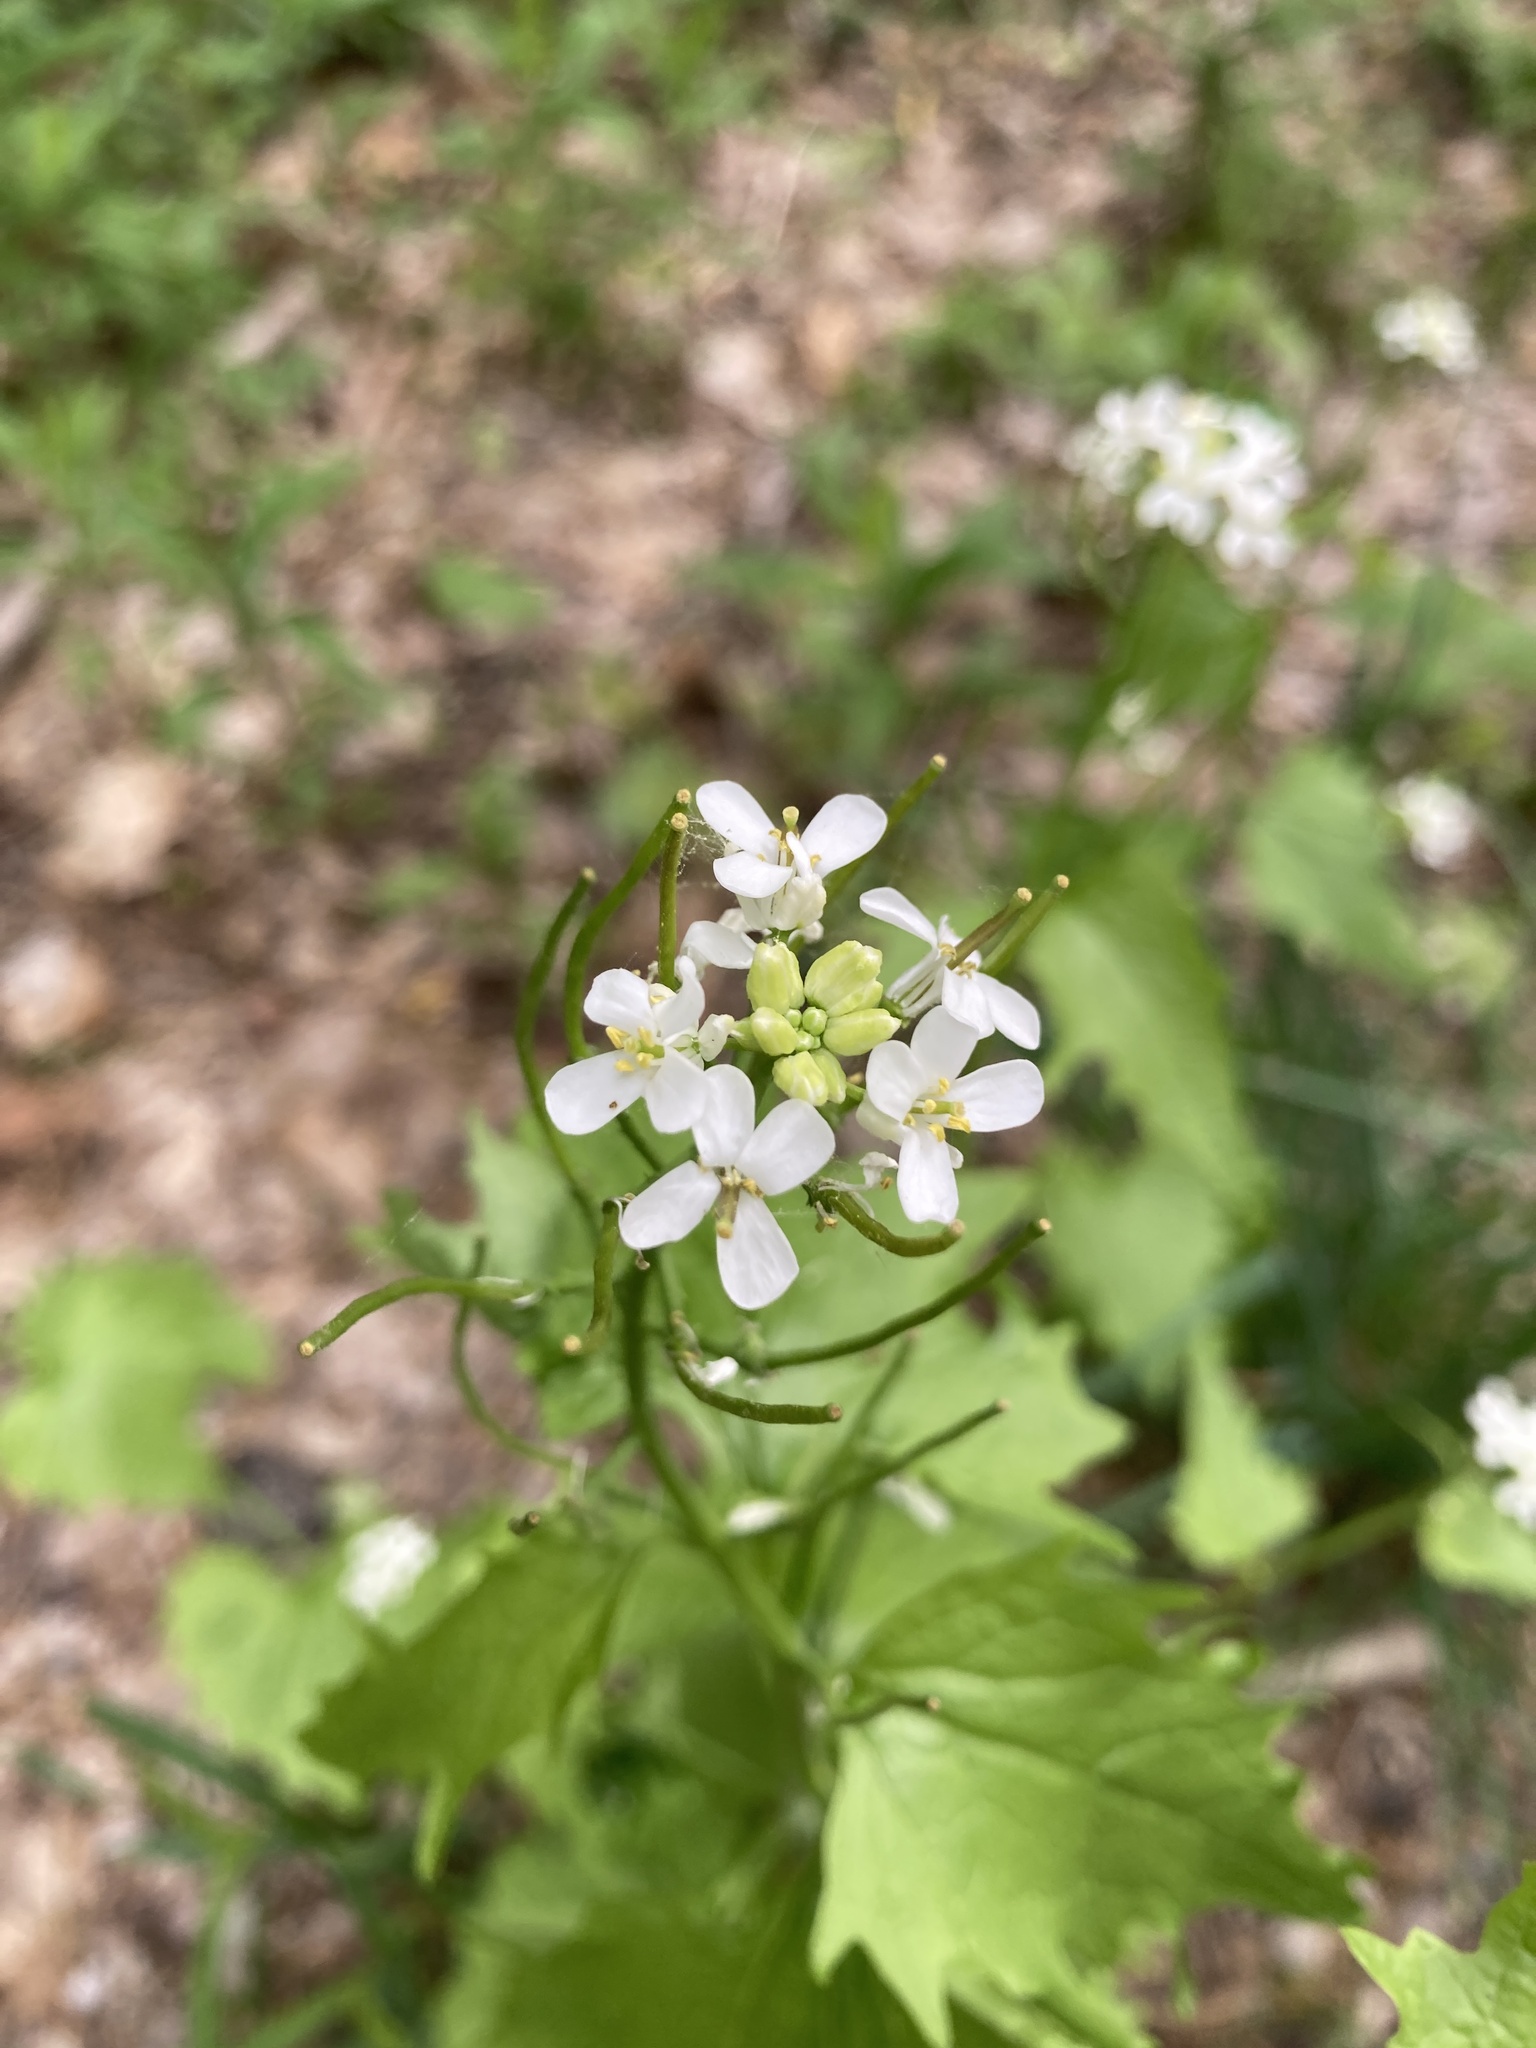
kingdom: Plantae
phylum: Tracheophyta
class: Magnoliopsida
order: Brassicales
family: Brassicaceae
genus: Alliaria
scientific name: Alliaria petiolata
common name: Garlic mustard
